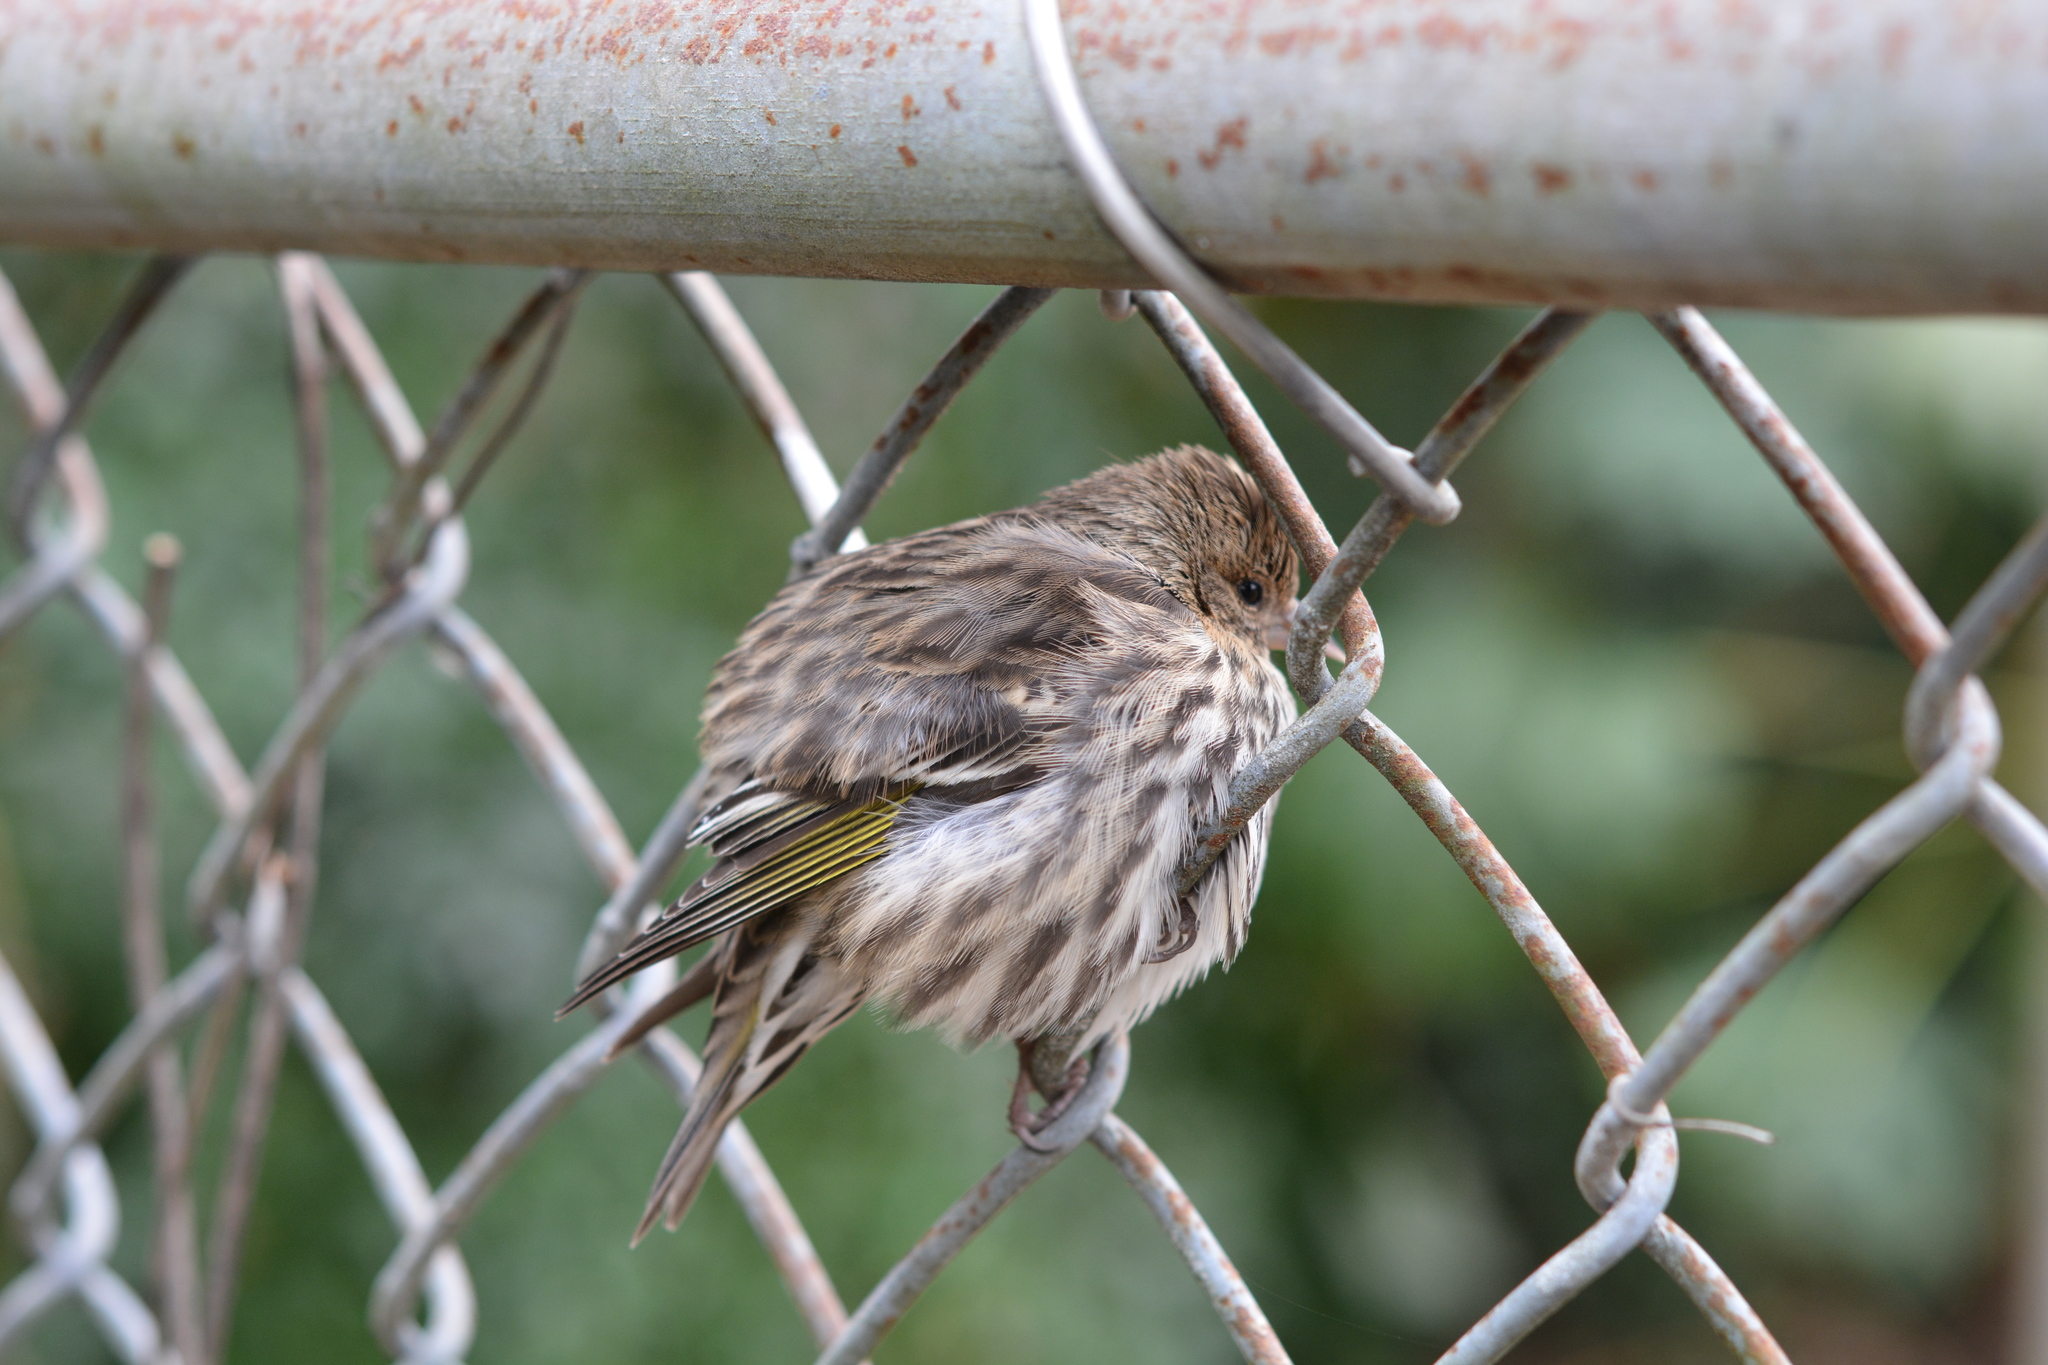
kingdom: Animalia
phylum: Chordata
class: Aves
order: Passeriformes
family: Fringillidae
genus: Spinus
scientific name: Spinus pinus
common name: Pine siskin
